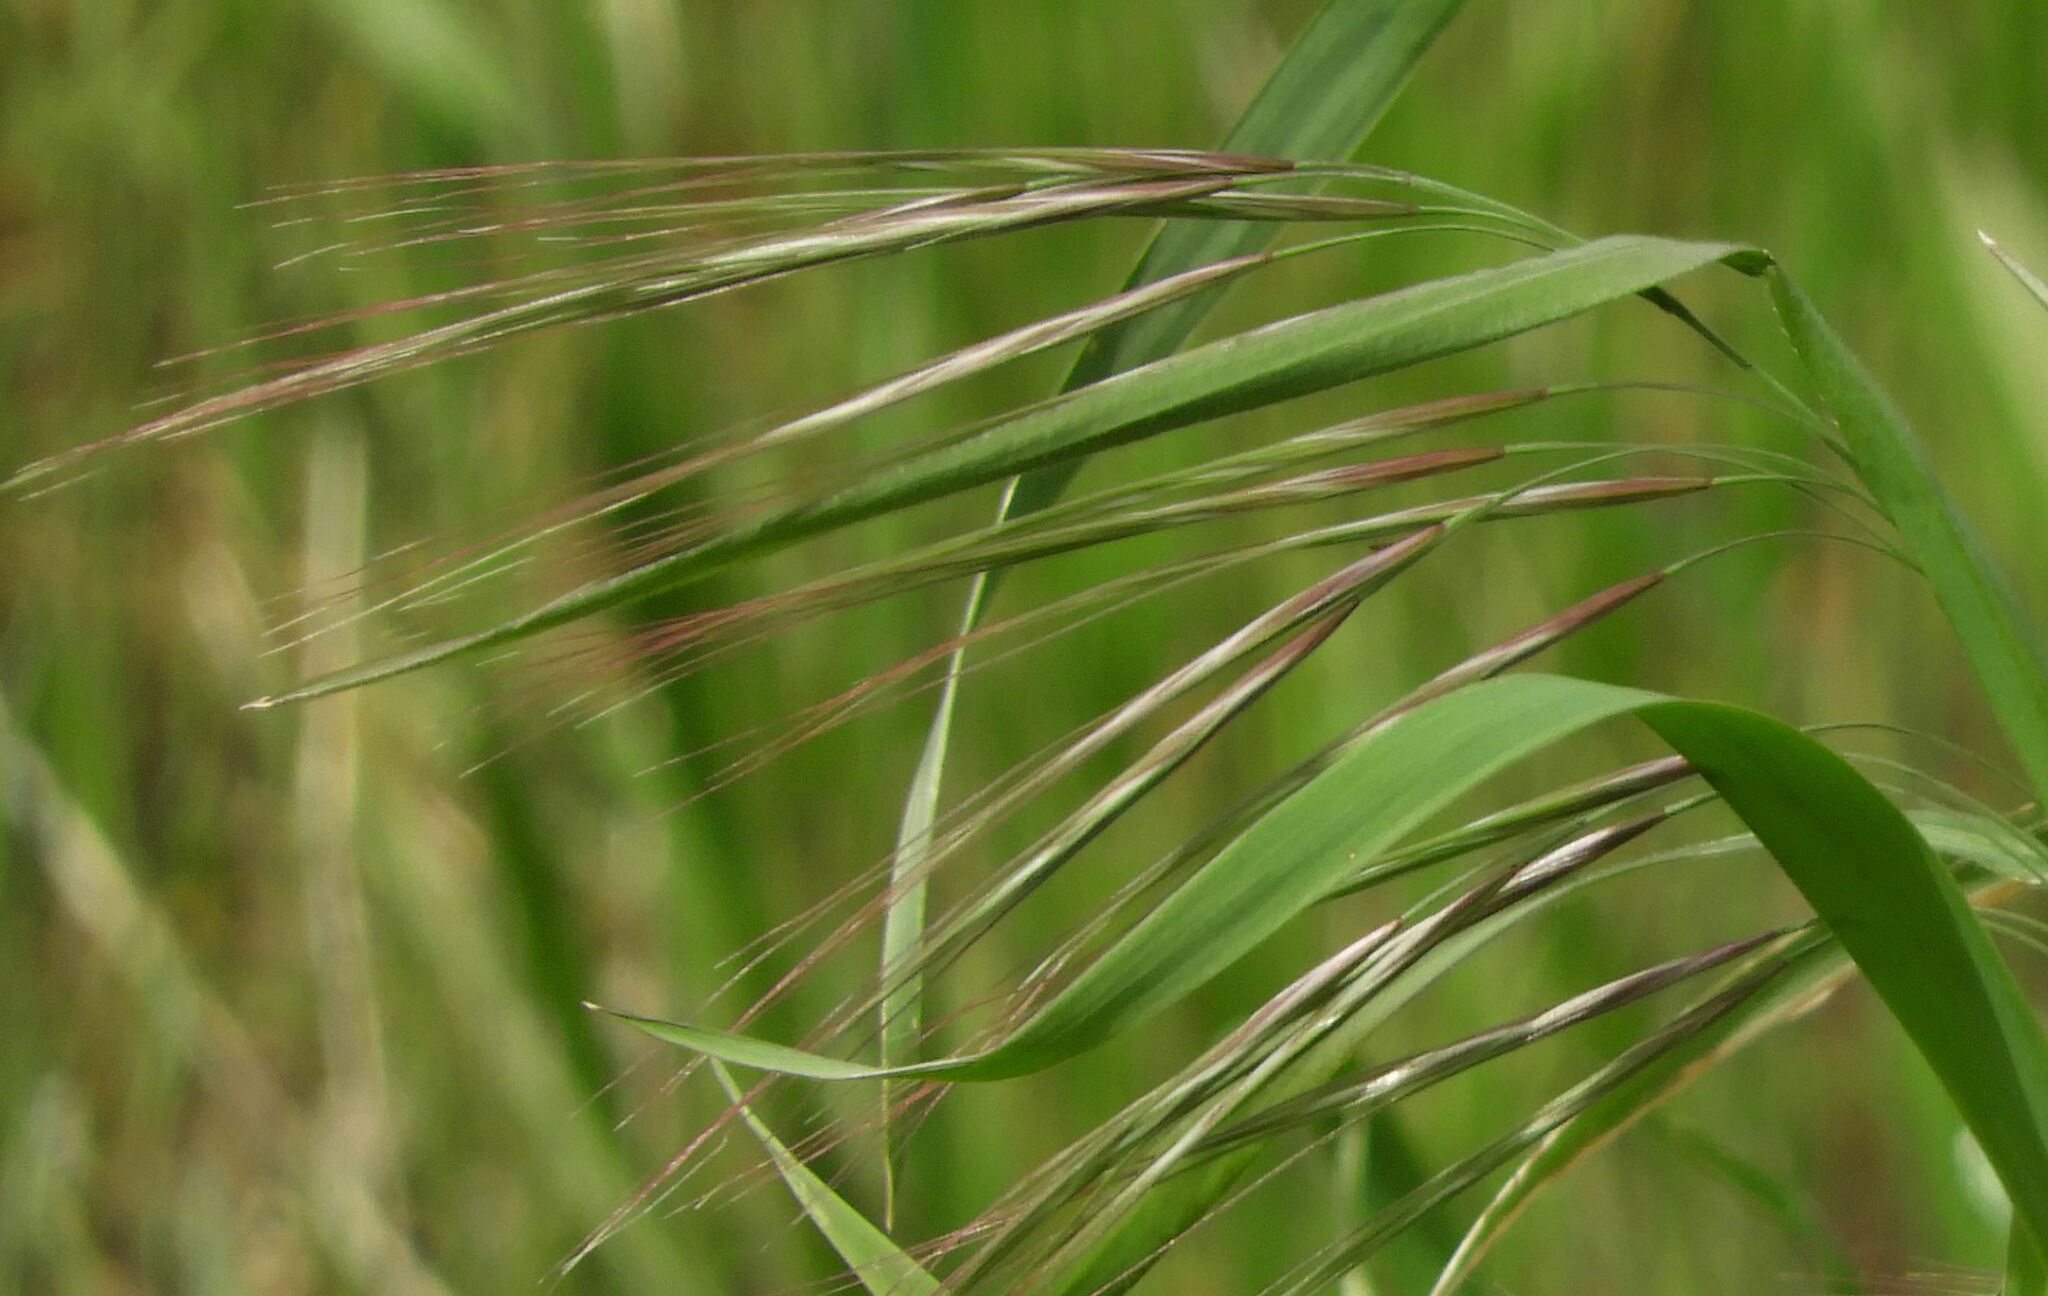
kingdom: Plantae
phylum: Tracheophyta
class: Liliopsida
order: Poales
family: Poaceae
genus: Bromus
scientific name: Bromus diandrus
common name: Ripgut brome
